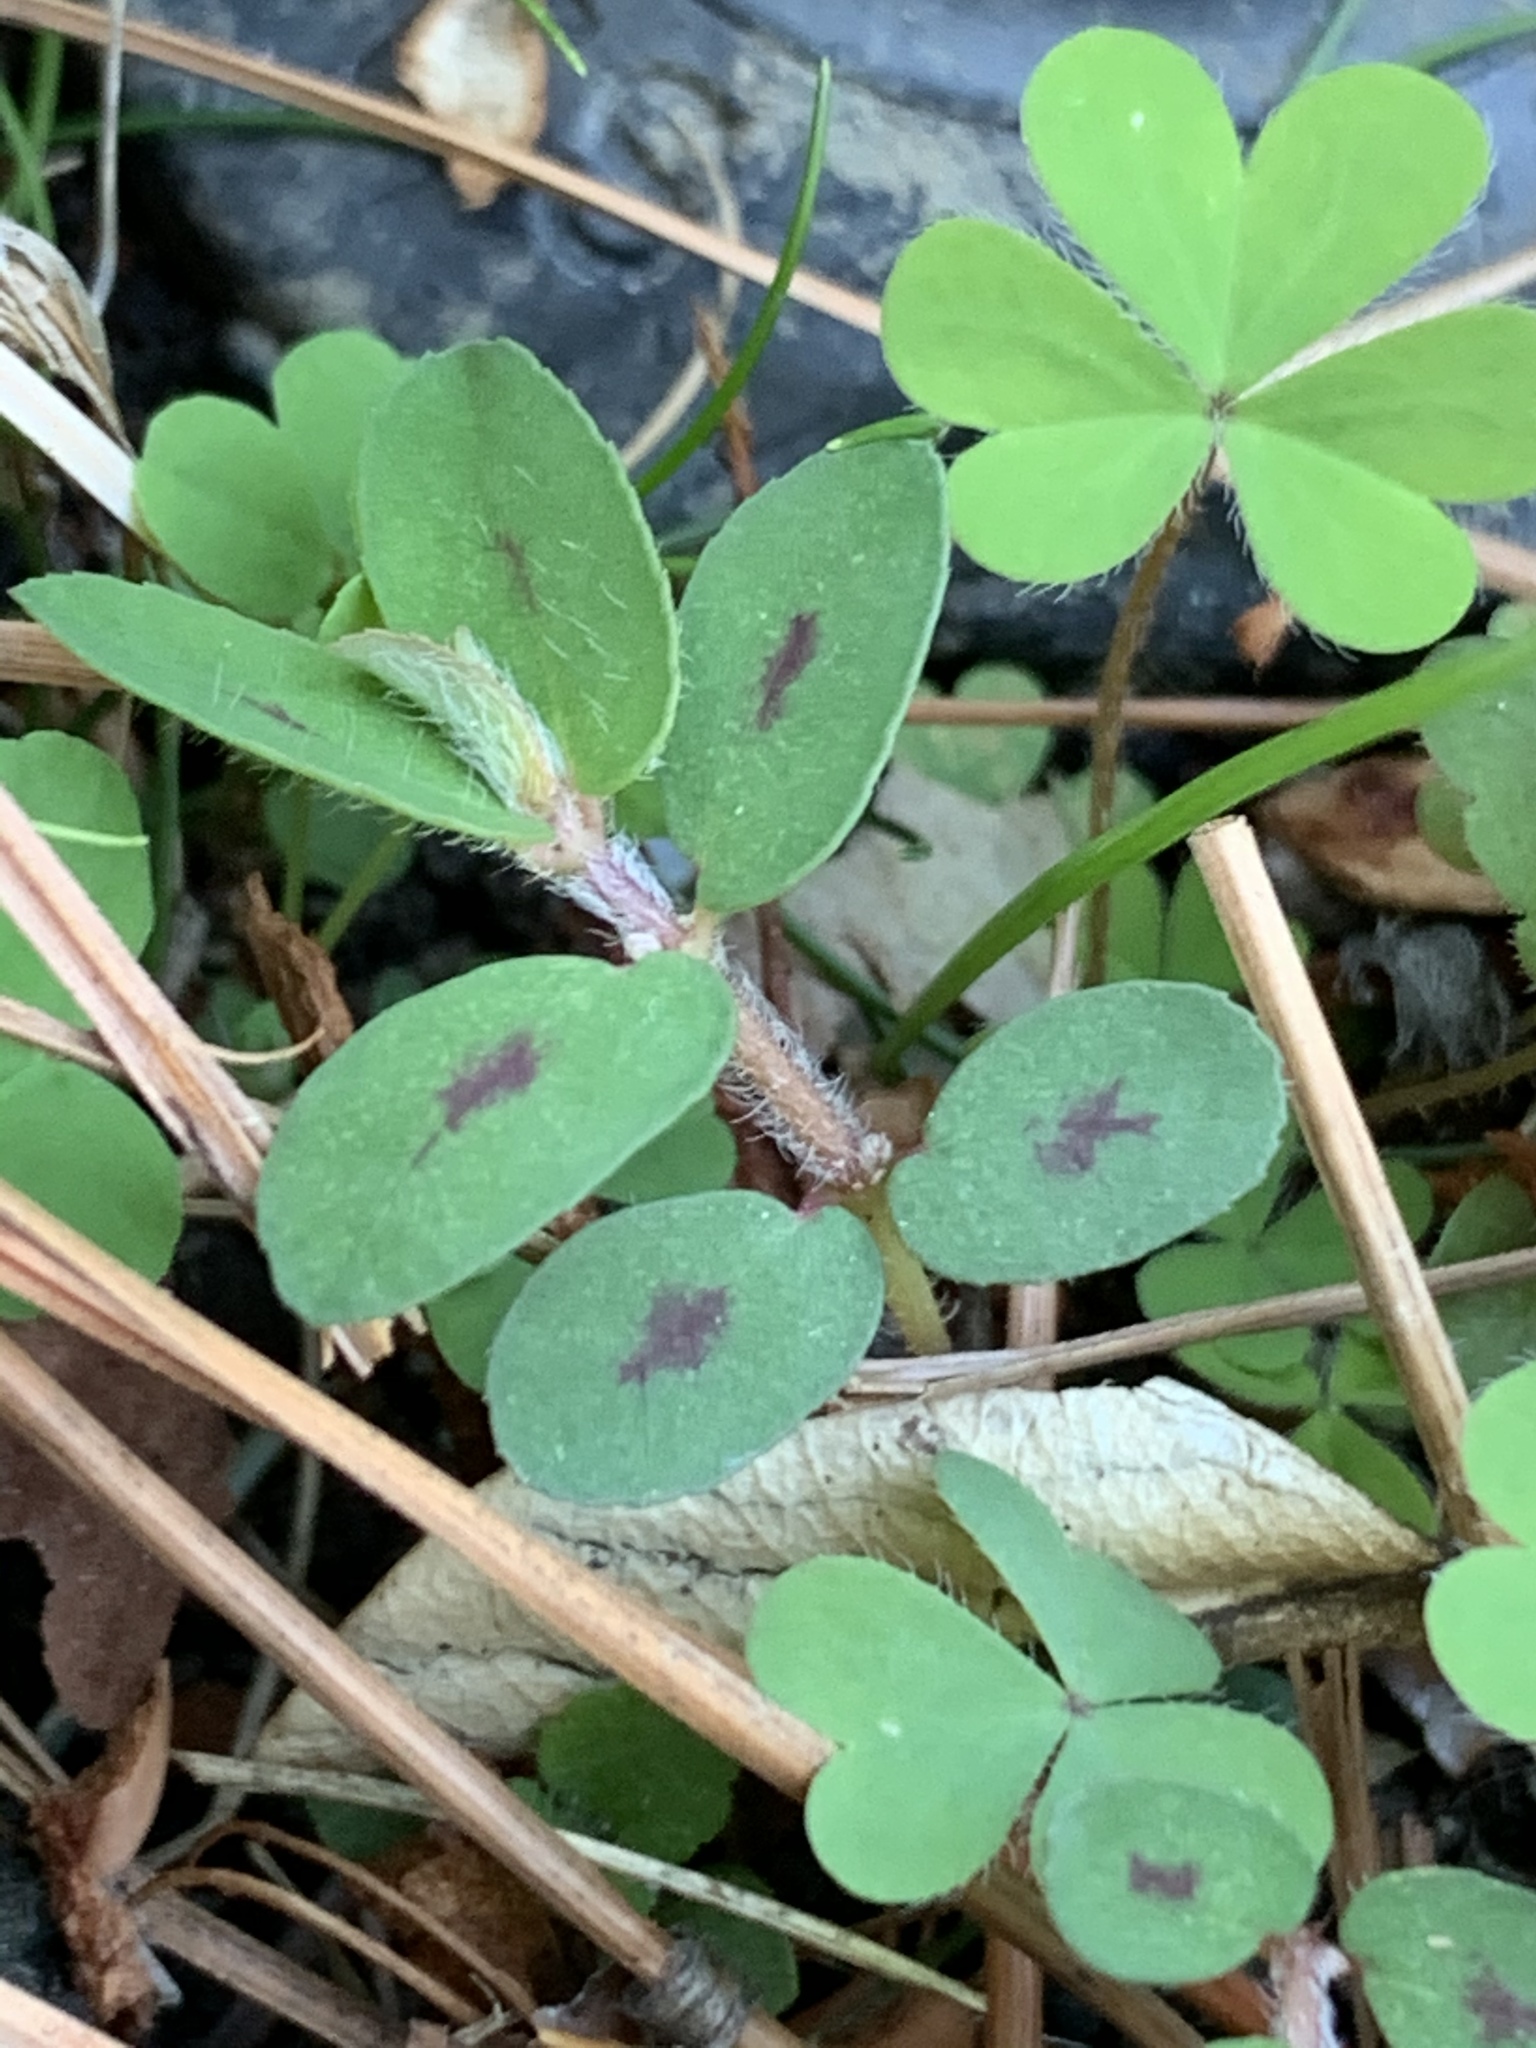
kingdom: Plantae
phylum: Tracheophyta
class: Magnoliopsida
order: Malpighiales
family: Euphorbiaceae
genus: Euphorbia
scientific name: Euphorbia maculata
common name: Spotted spurge
